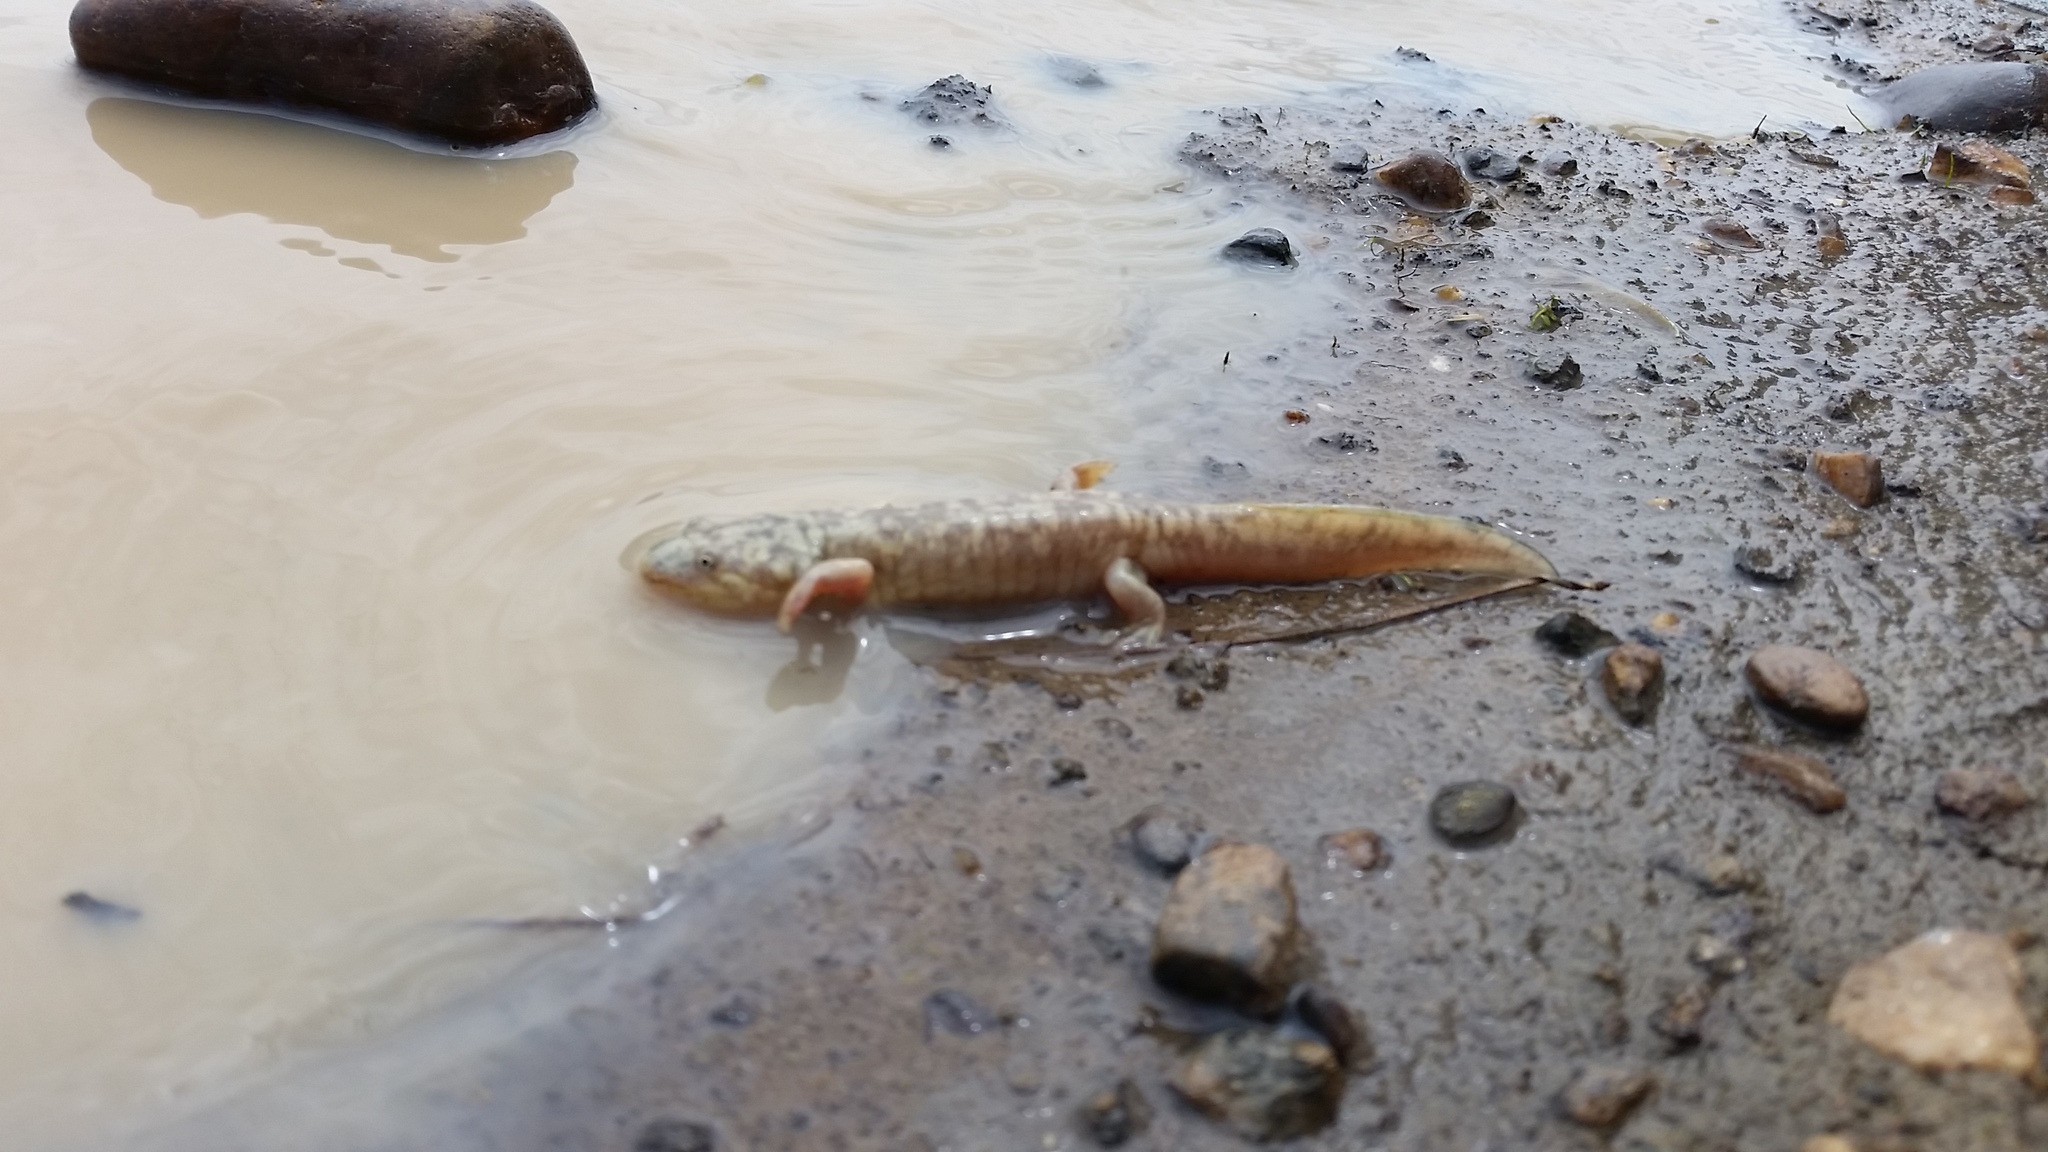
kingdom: Animalia
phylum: Chordata
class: Amphibia
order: Caudata
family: Ambystomatidae
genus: Ambystoma
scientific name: Ambystoma californiense
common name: California tiger salamander
